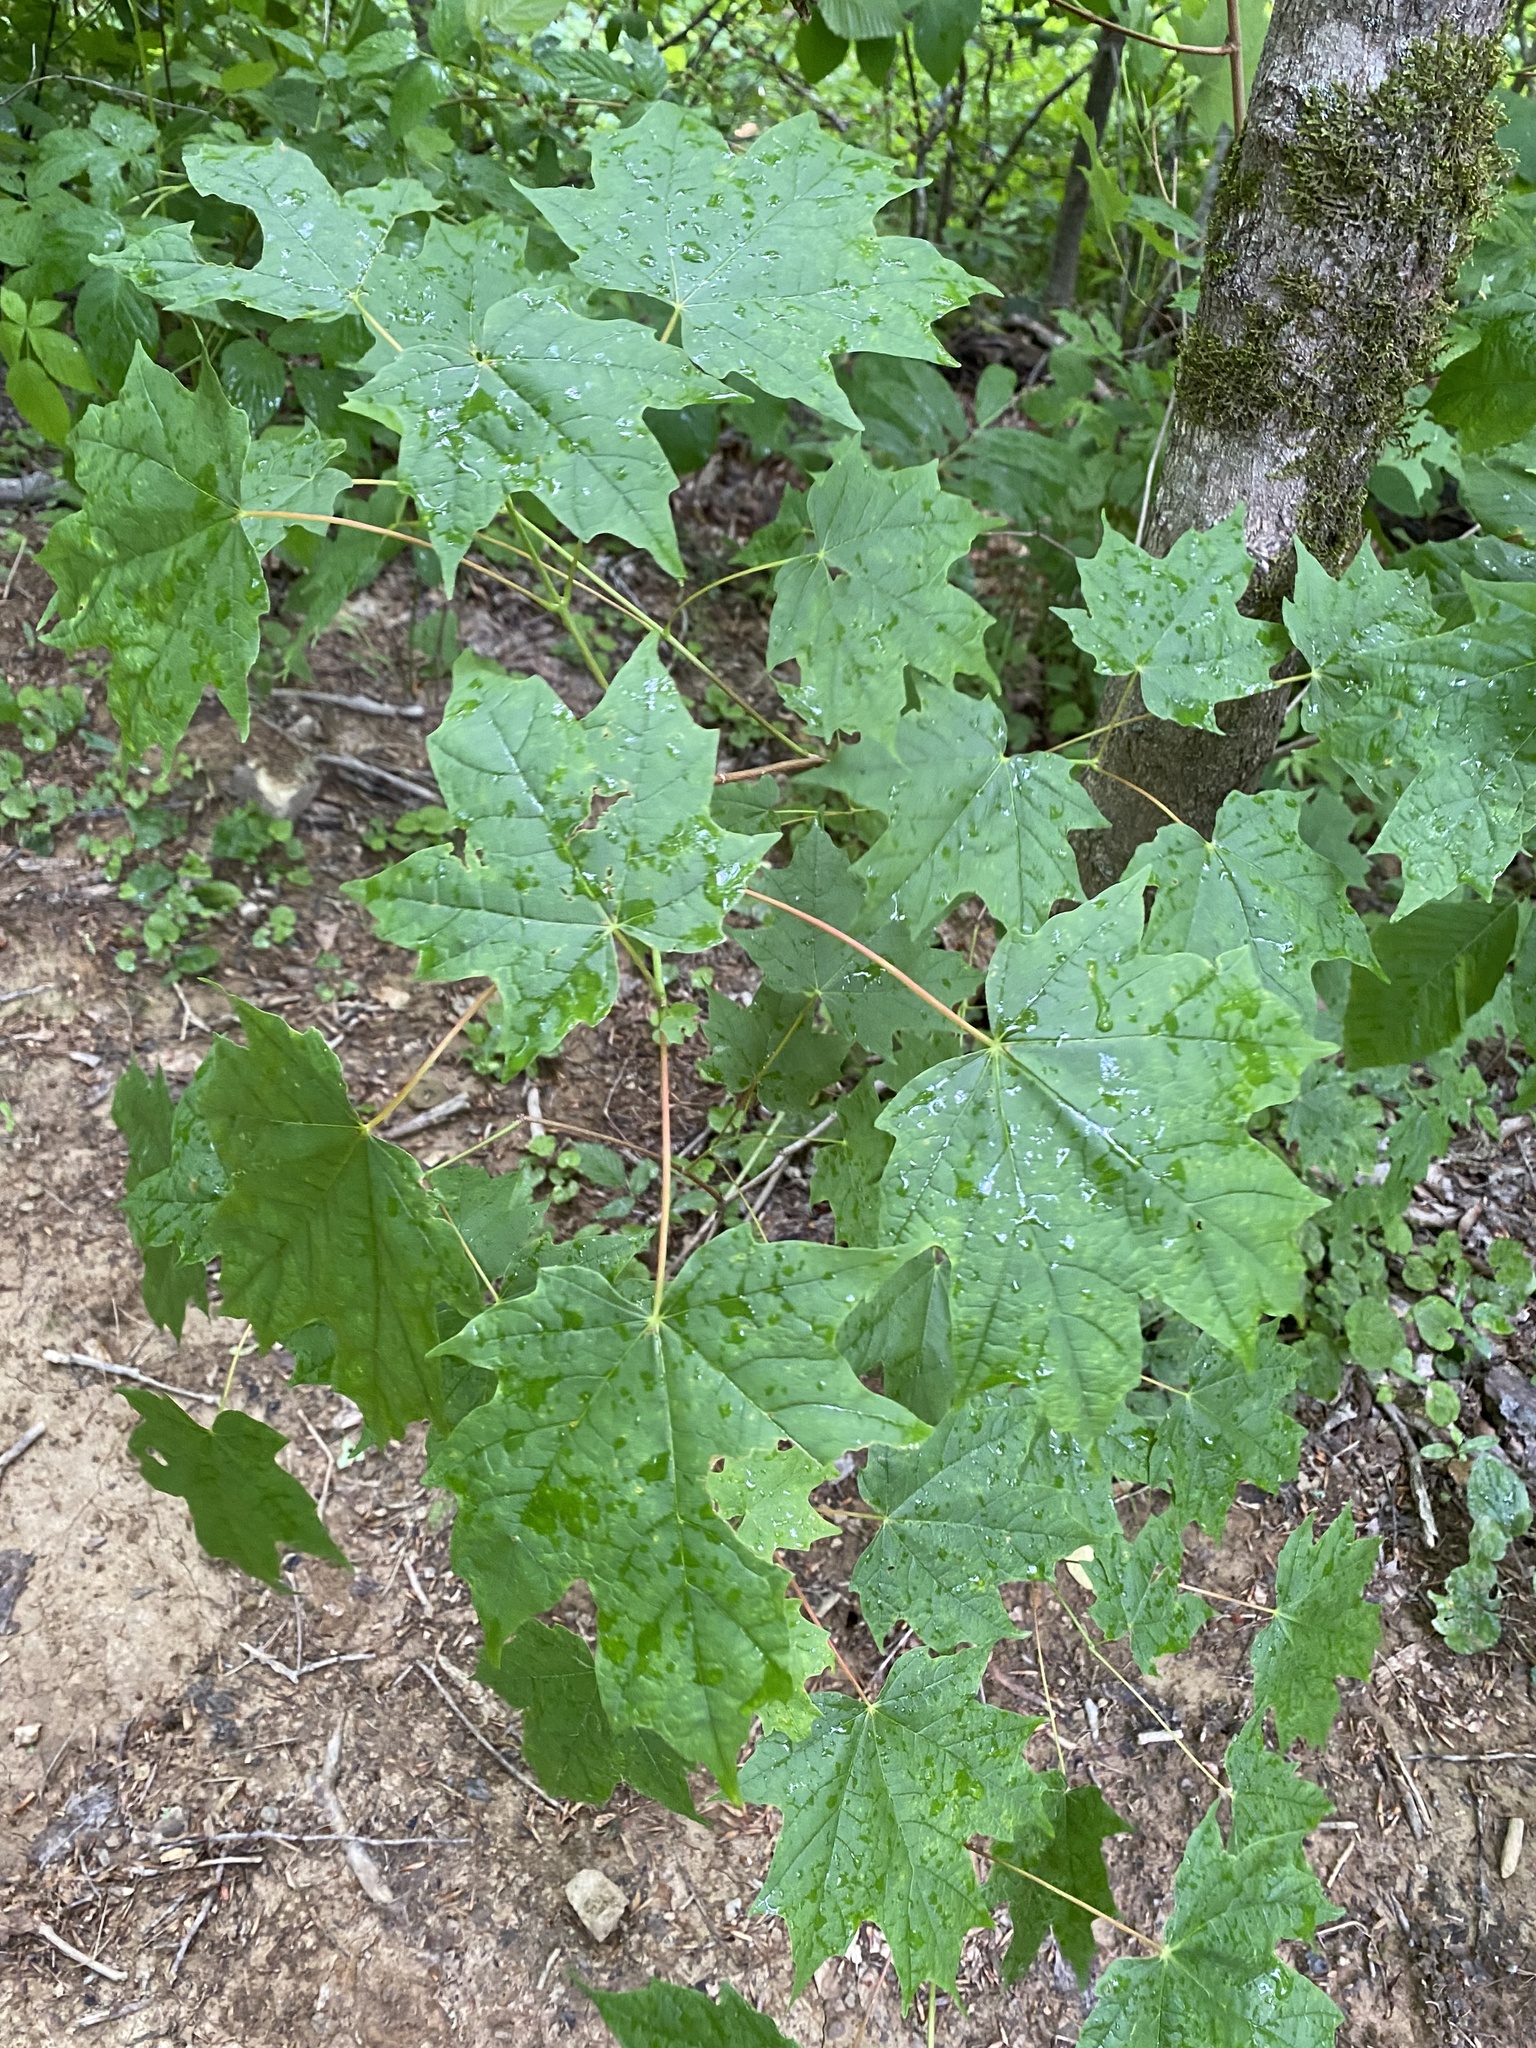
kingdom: Plantae
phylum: Tracheophyta
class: Magnoliopsida
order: Sapindales
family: Sapindaceae
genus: Acer
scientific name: Acer saccharum
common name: Sugar maple
